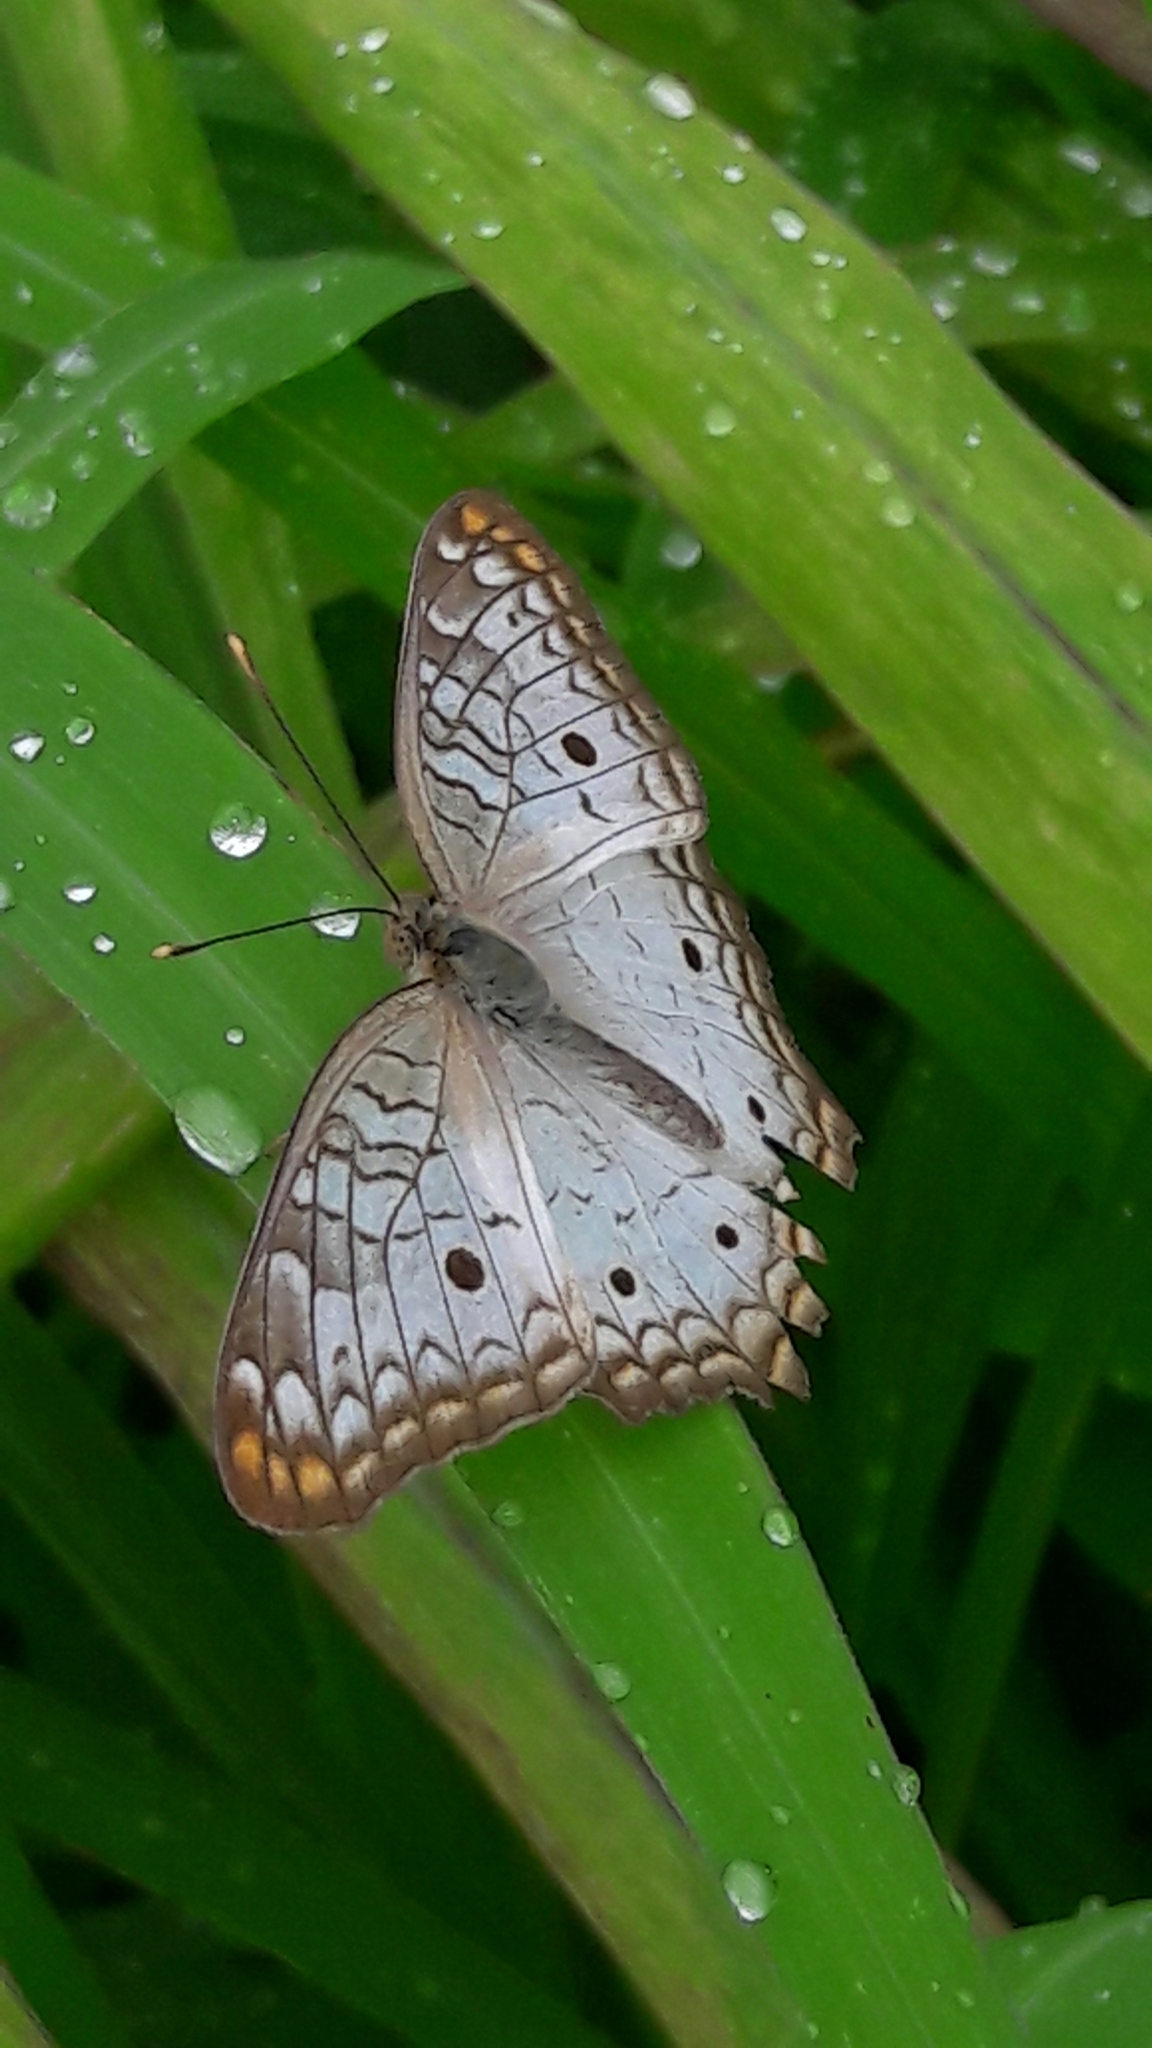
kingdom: Animalia
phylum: Arthropoda
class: Insecta
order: Lepidoptera
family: Nymphalidae
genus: Anartia
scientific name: Anartia jatrophae
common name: White peacock
